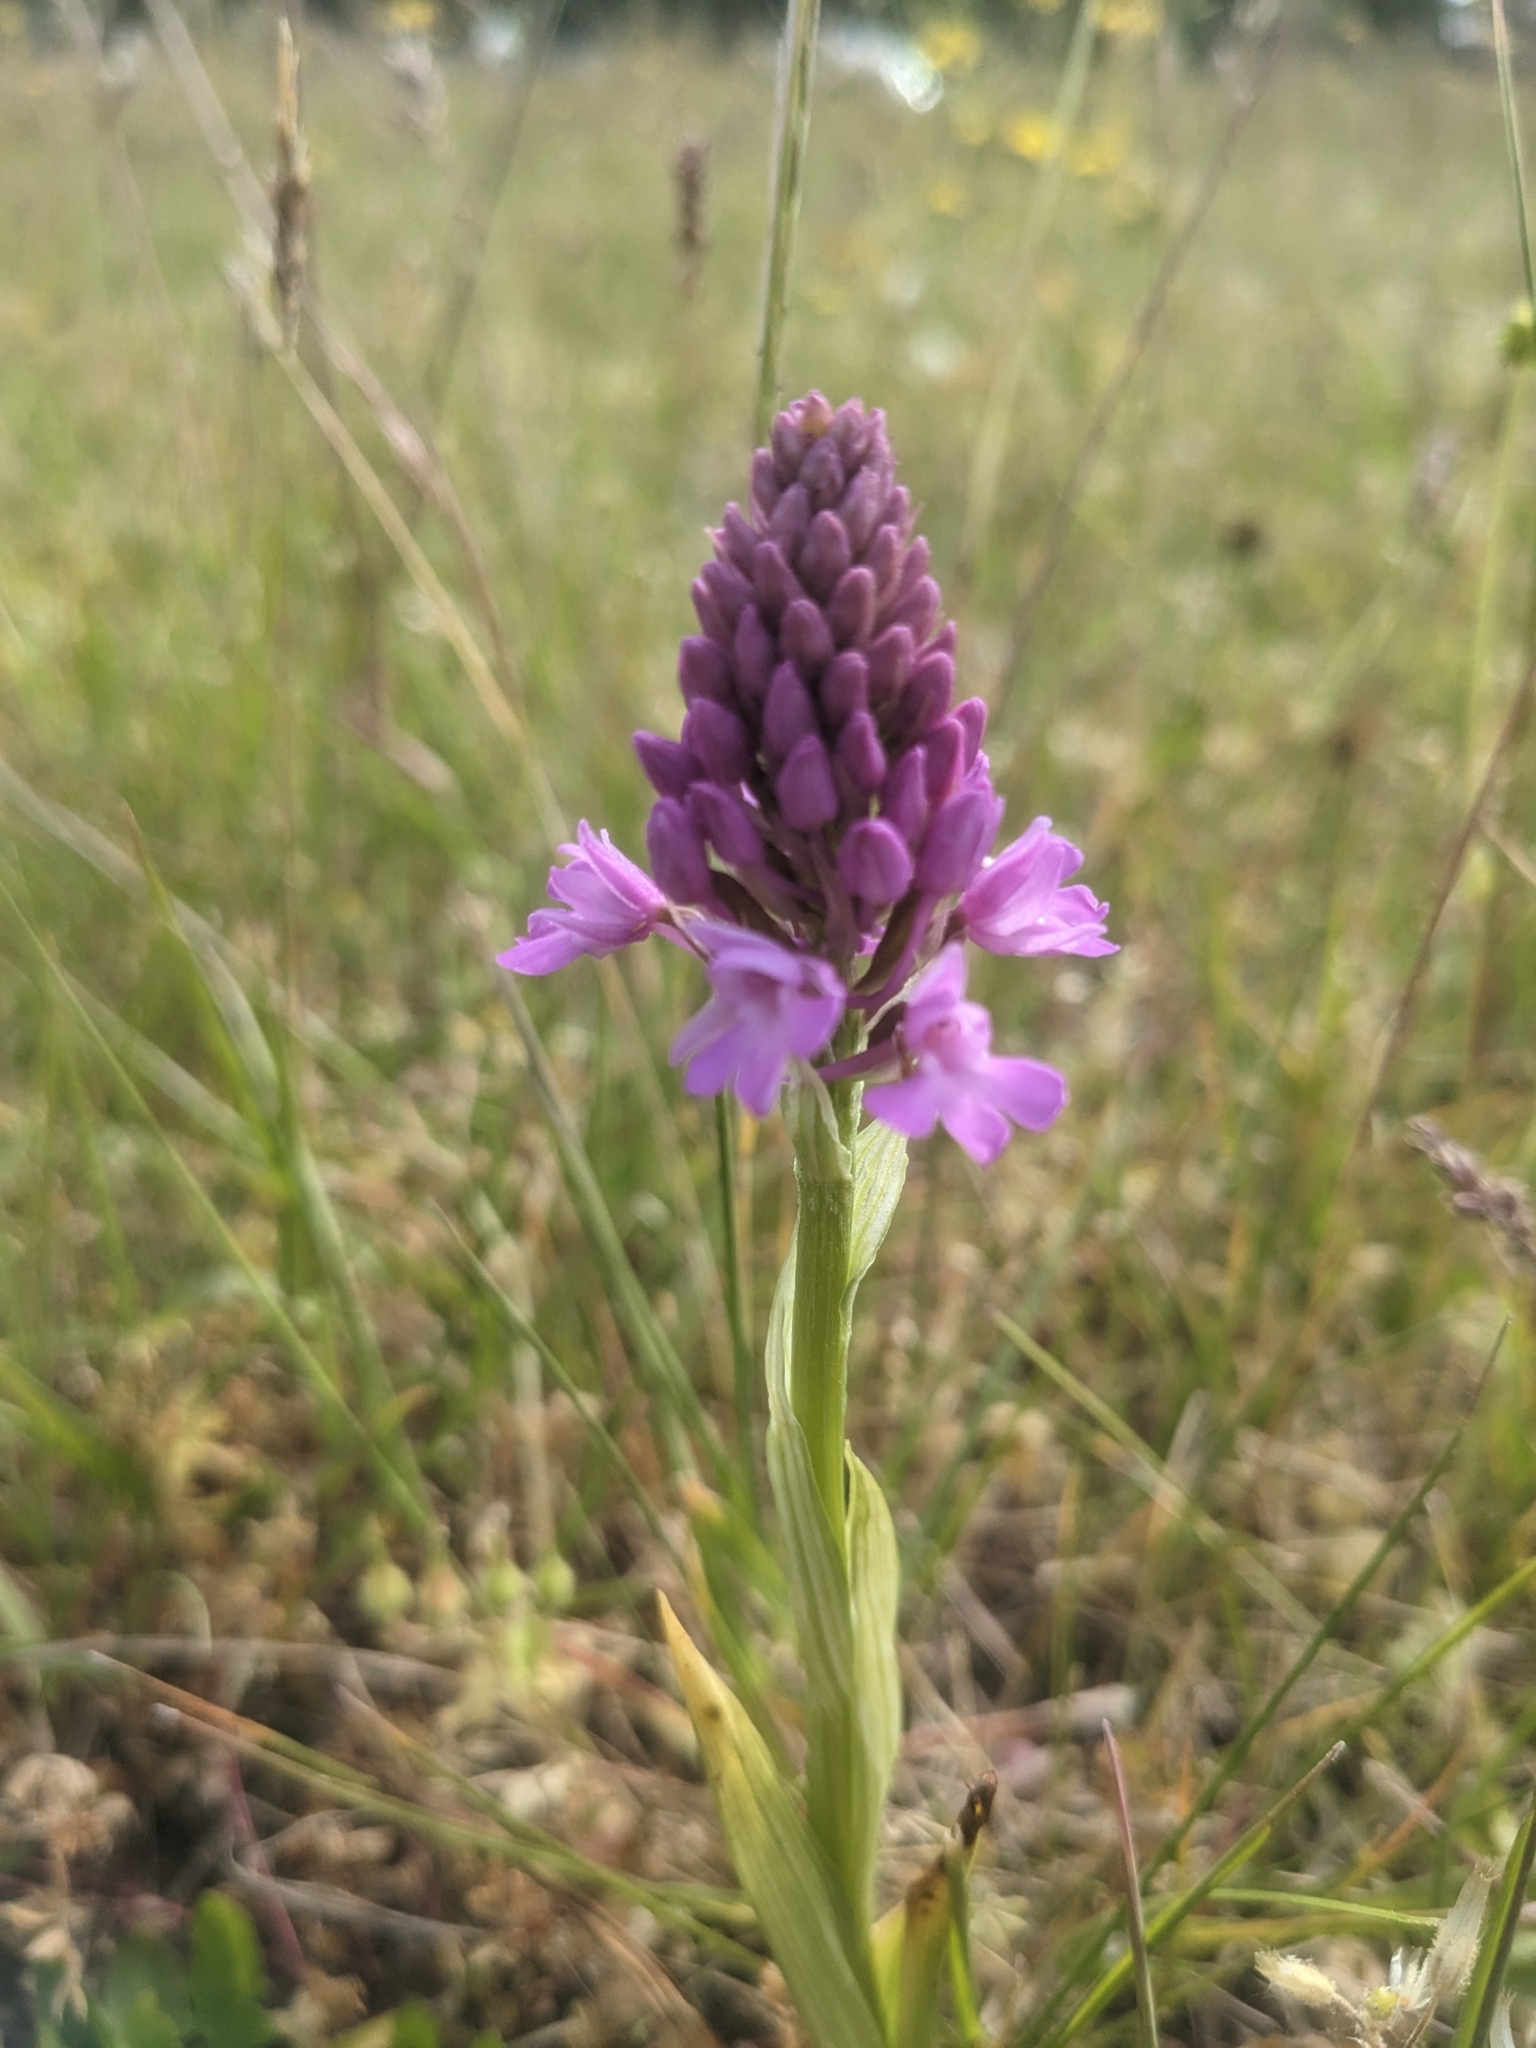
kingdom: Plantae
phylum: Tracheophyta
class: Liliopsida
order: Asparagales
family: Orchidaceae
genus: Anacamptis
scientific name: Anacamptis pyramidalis
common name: Pyramidal orchid
